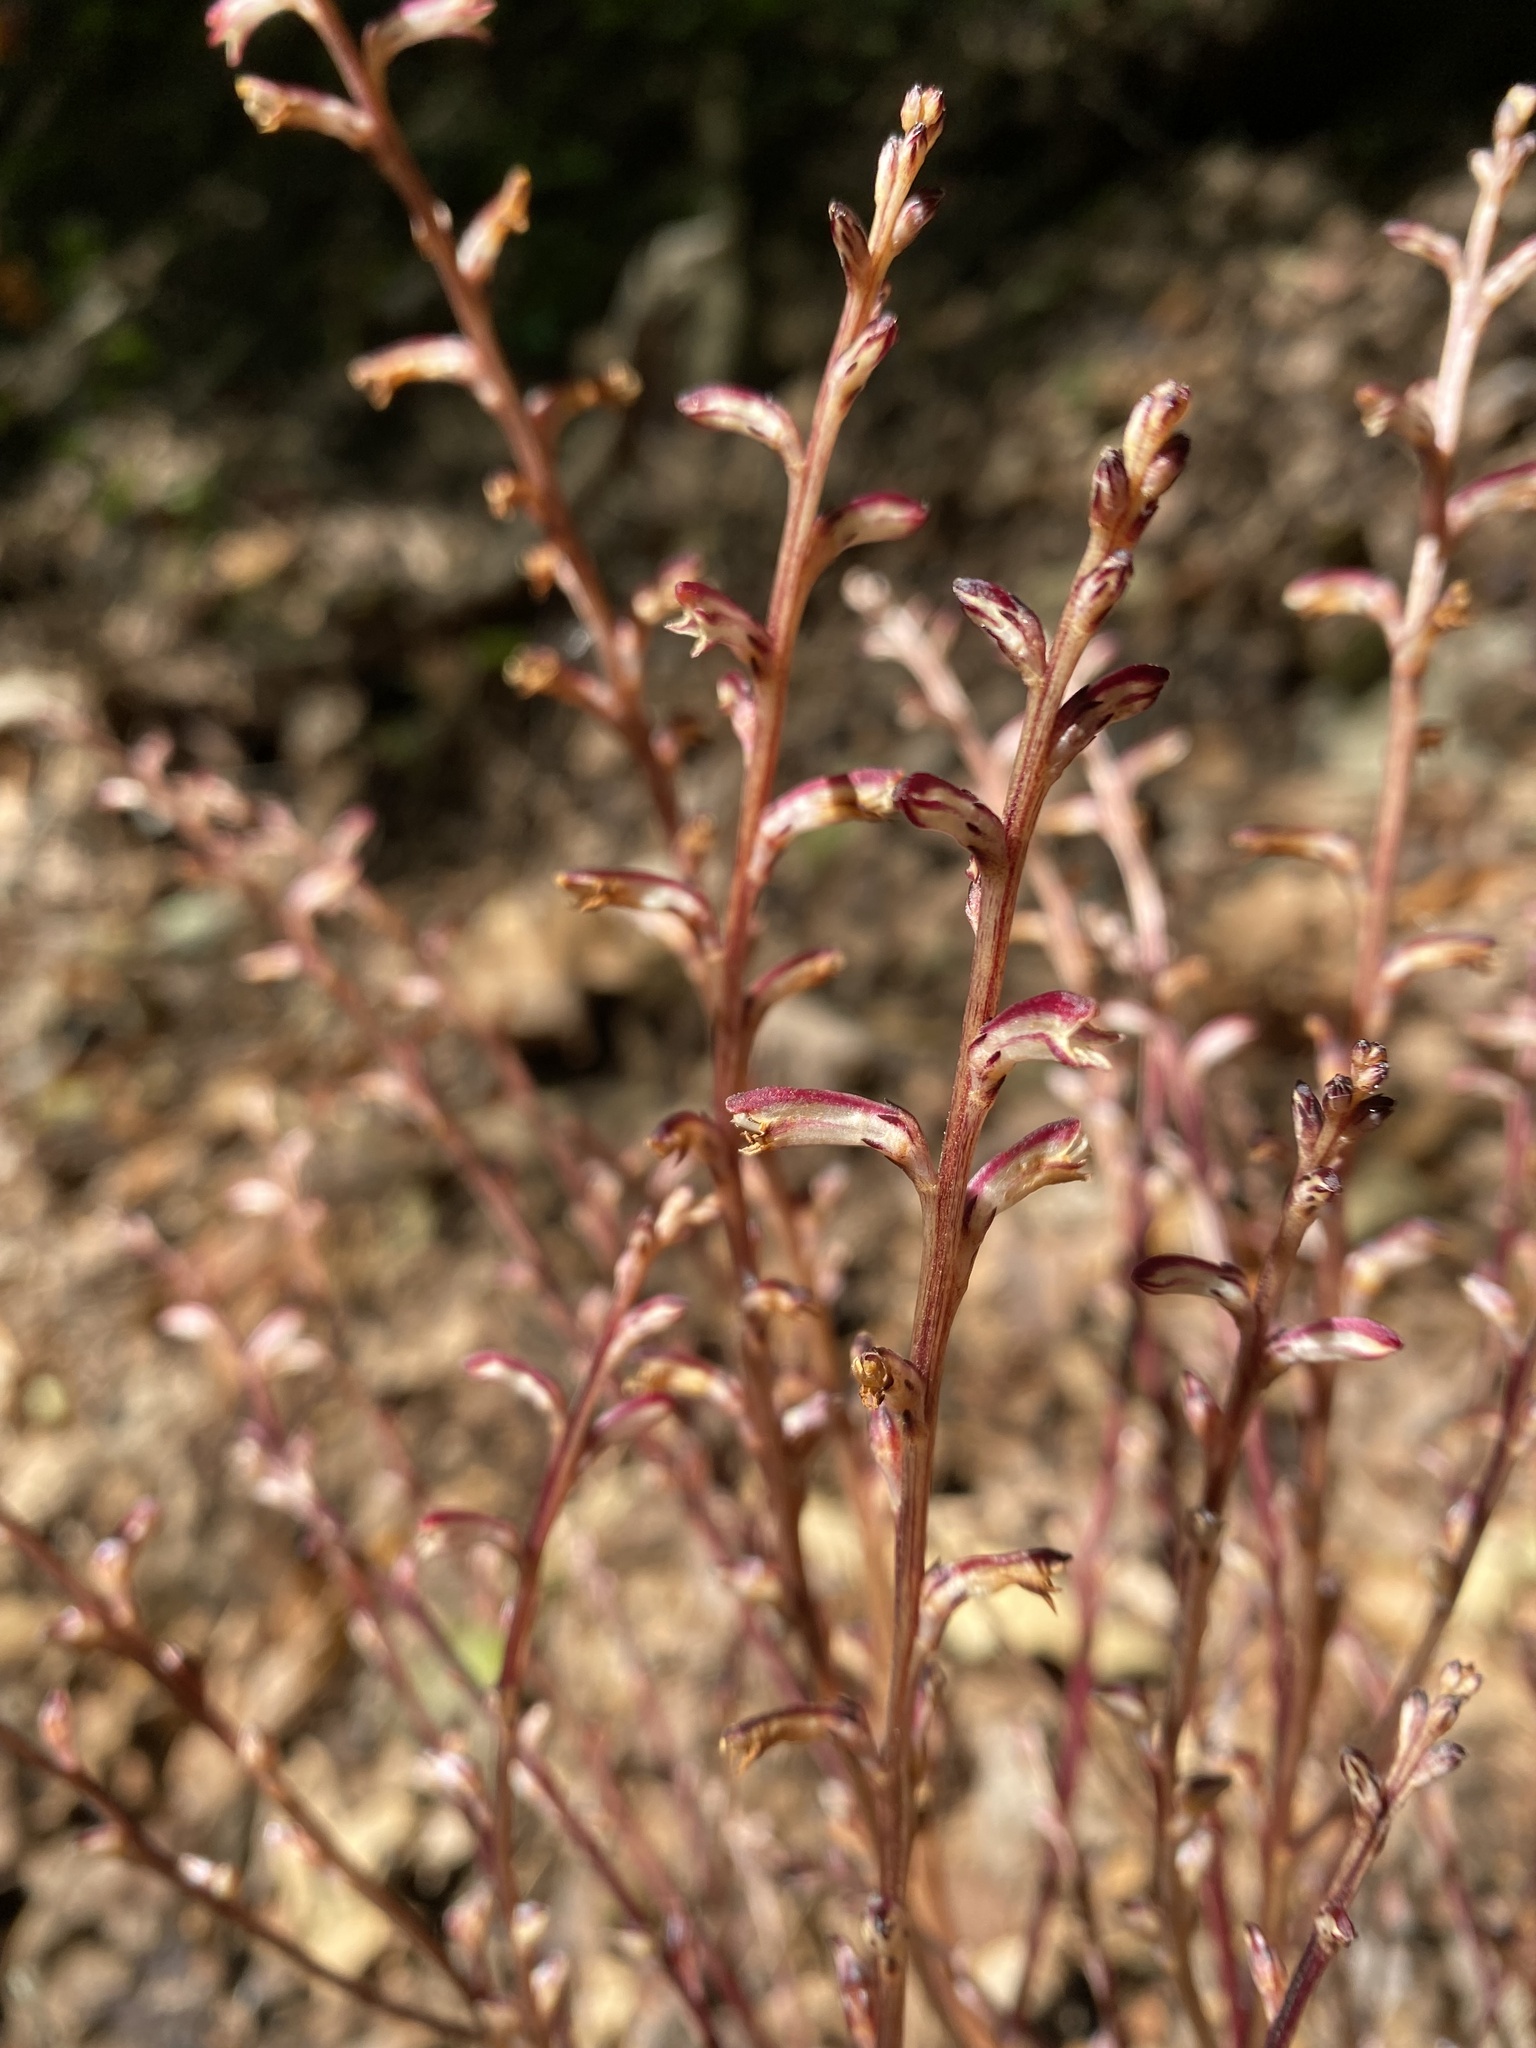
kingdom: Plantae
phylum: Tracheophyta
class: Magnoliopsida
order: Lamiales
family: Orobanchaceae
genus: Epifagus
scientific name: Epifagus virginiana
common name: Beechdrops
